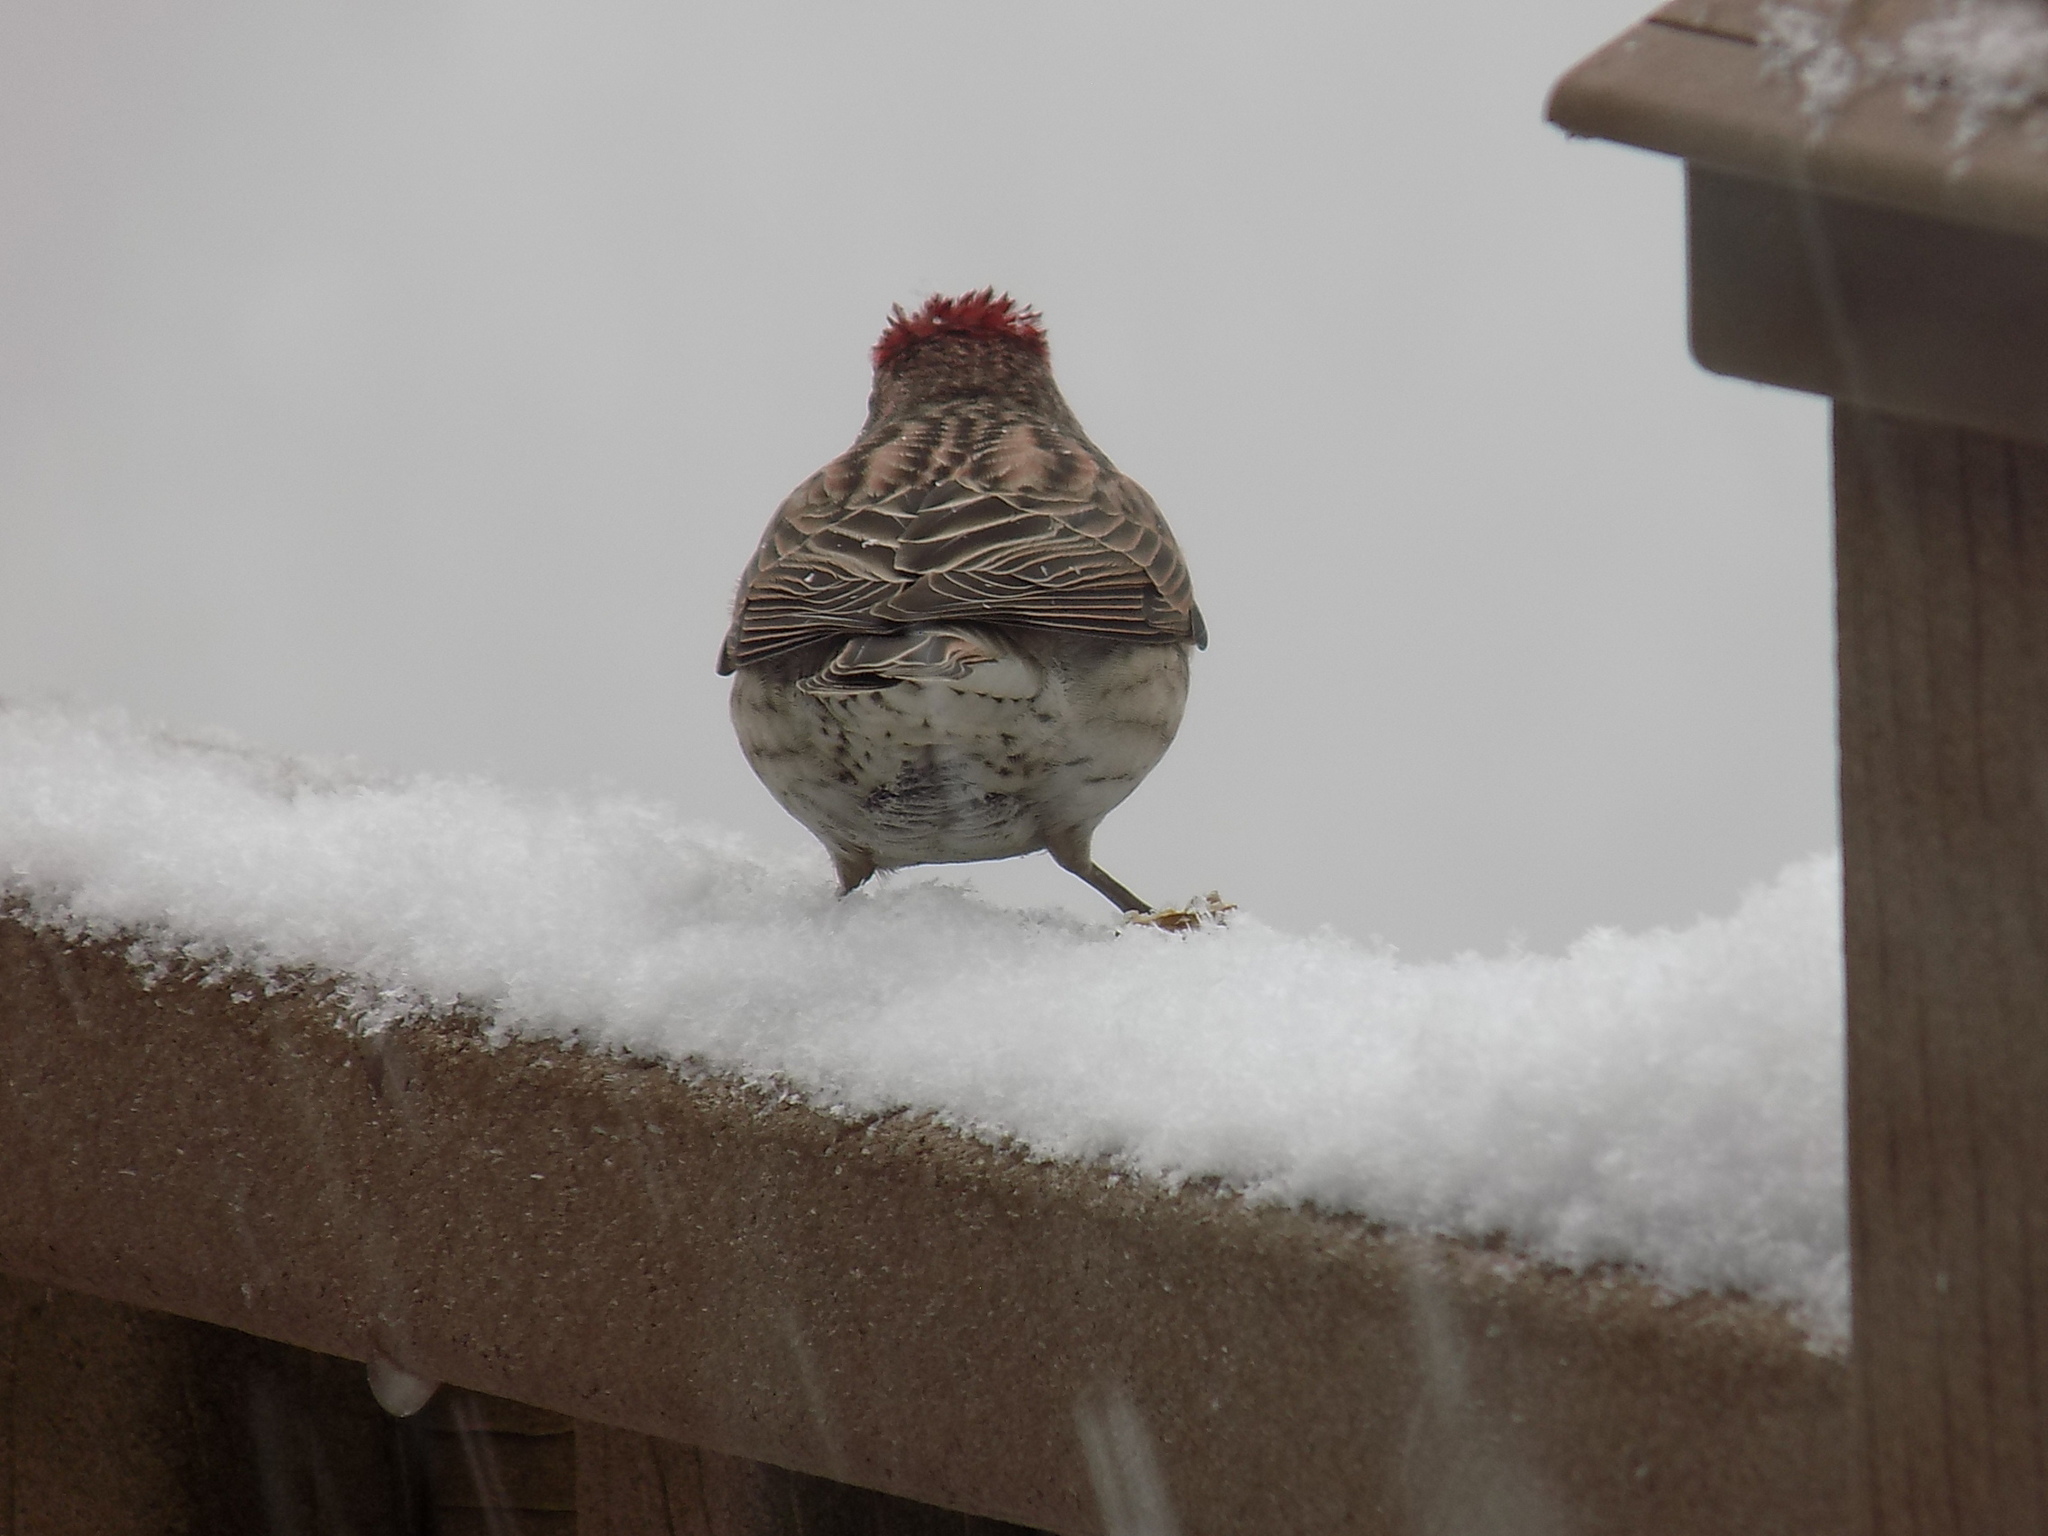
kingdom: Animalia
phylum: Chordata
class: Aves
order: Passeriformes
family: Fringillidae
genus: Haemorhous
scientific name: Haemorhous cassinii
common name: Cassin's finch
